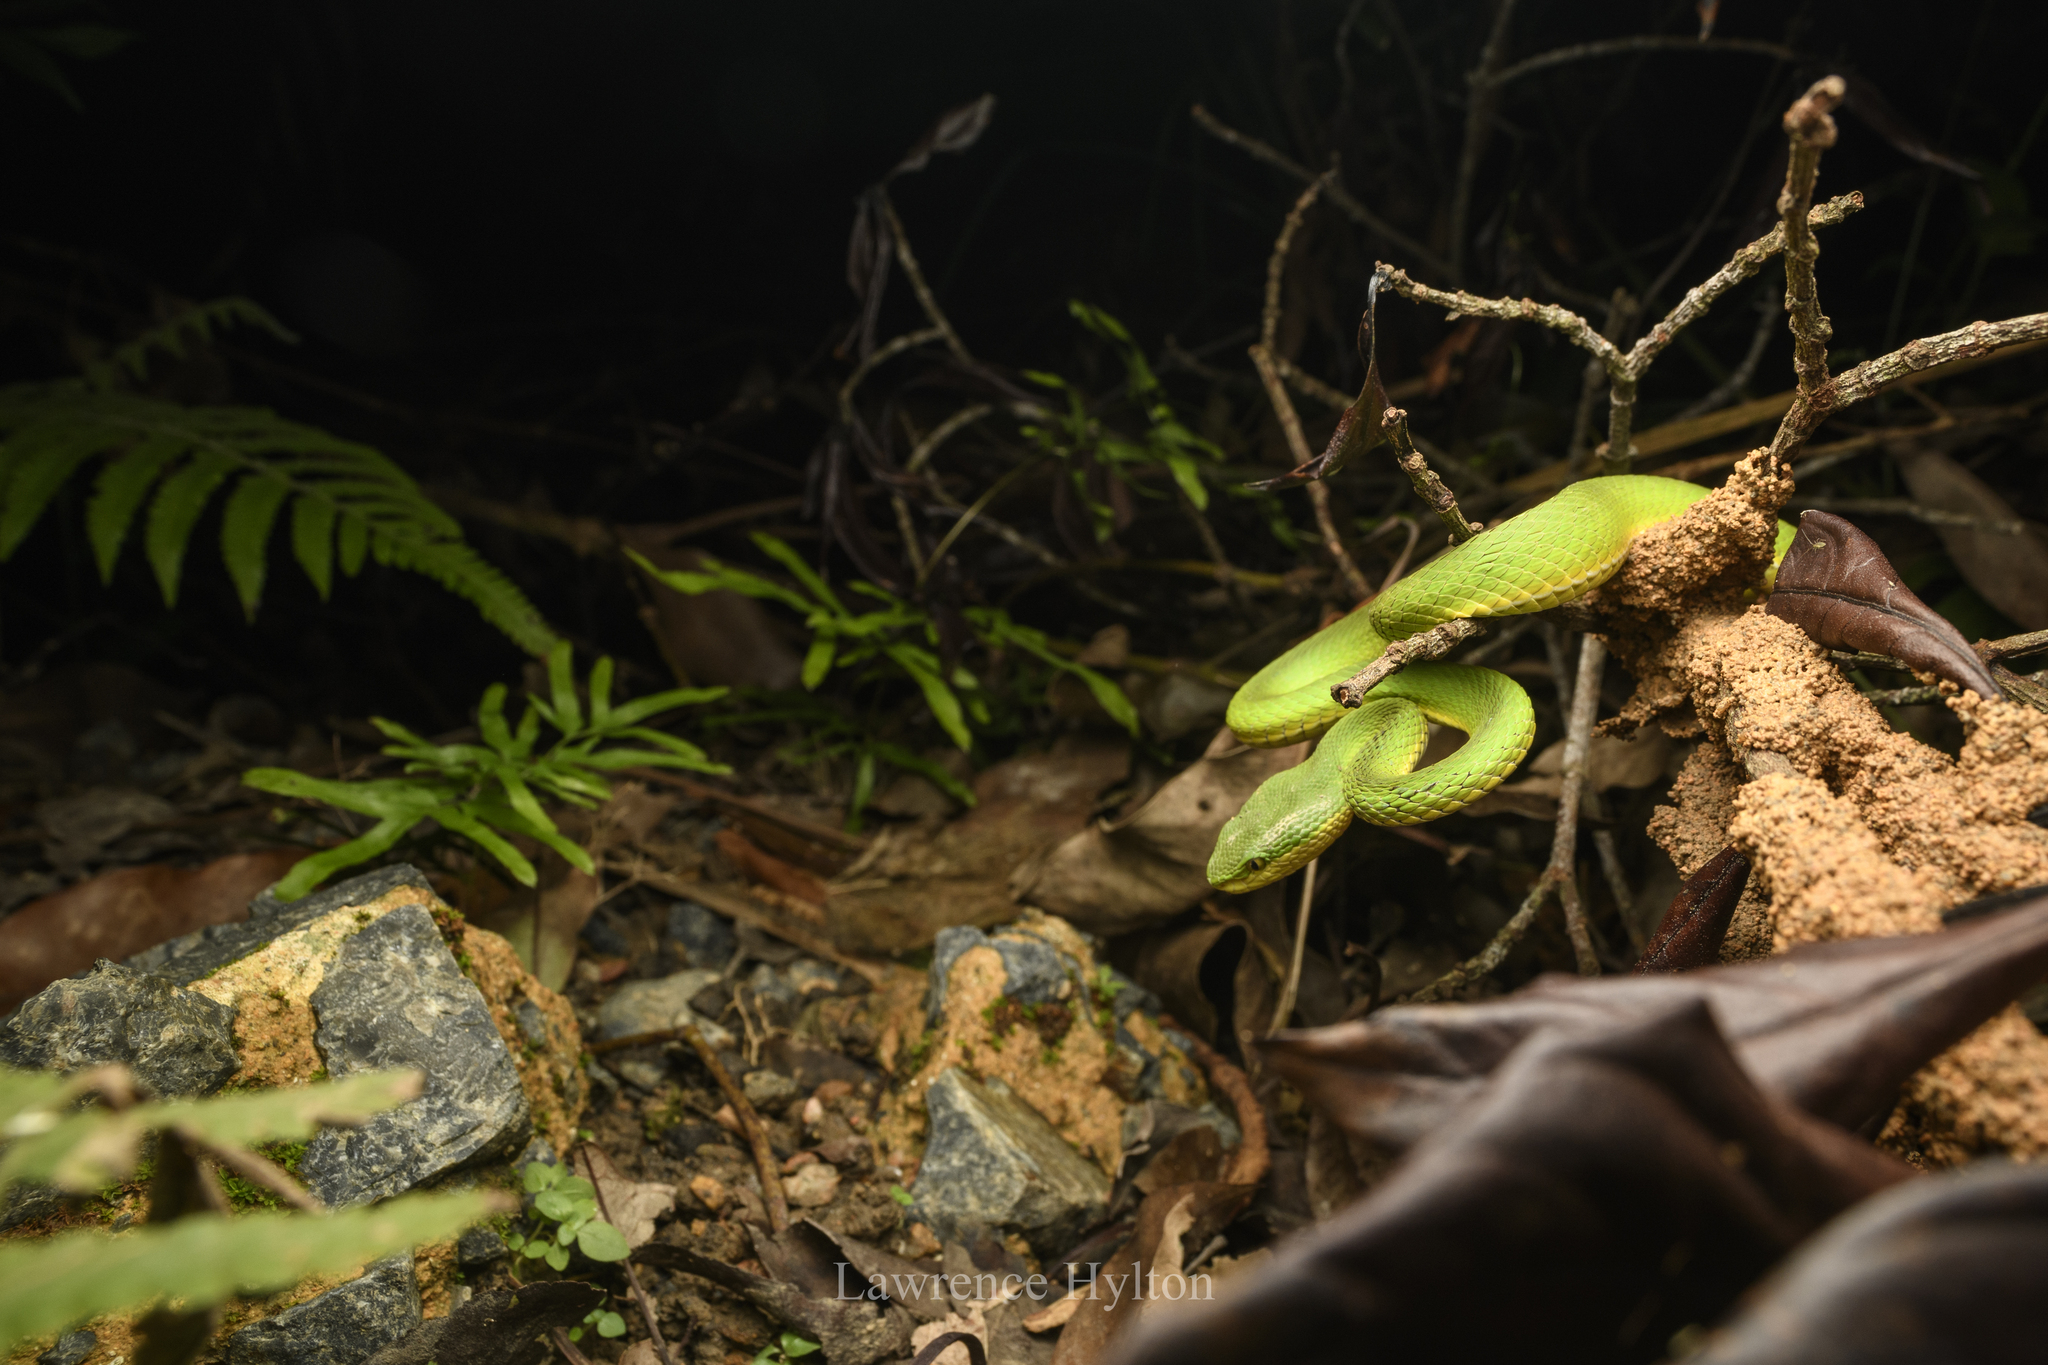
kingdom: Animalia
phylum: Chordata
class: Squamata
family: Viperidae
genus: Trimeresurus
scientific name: Trimeresurus albolabris
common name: White-lipped pitviper
